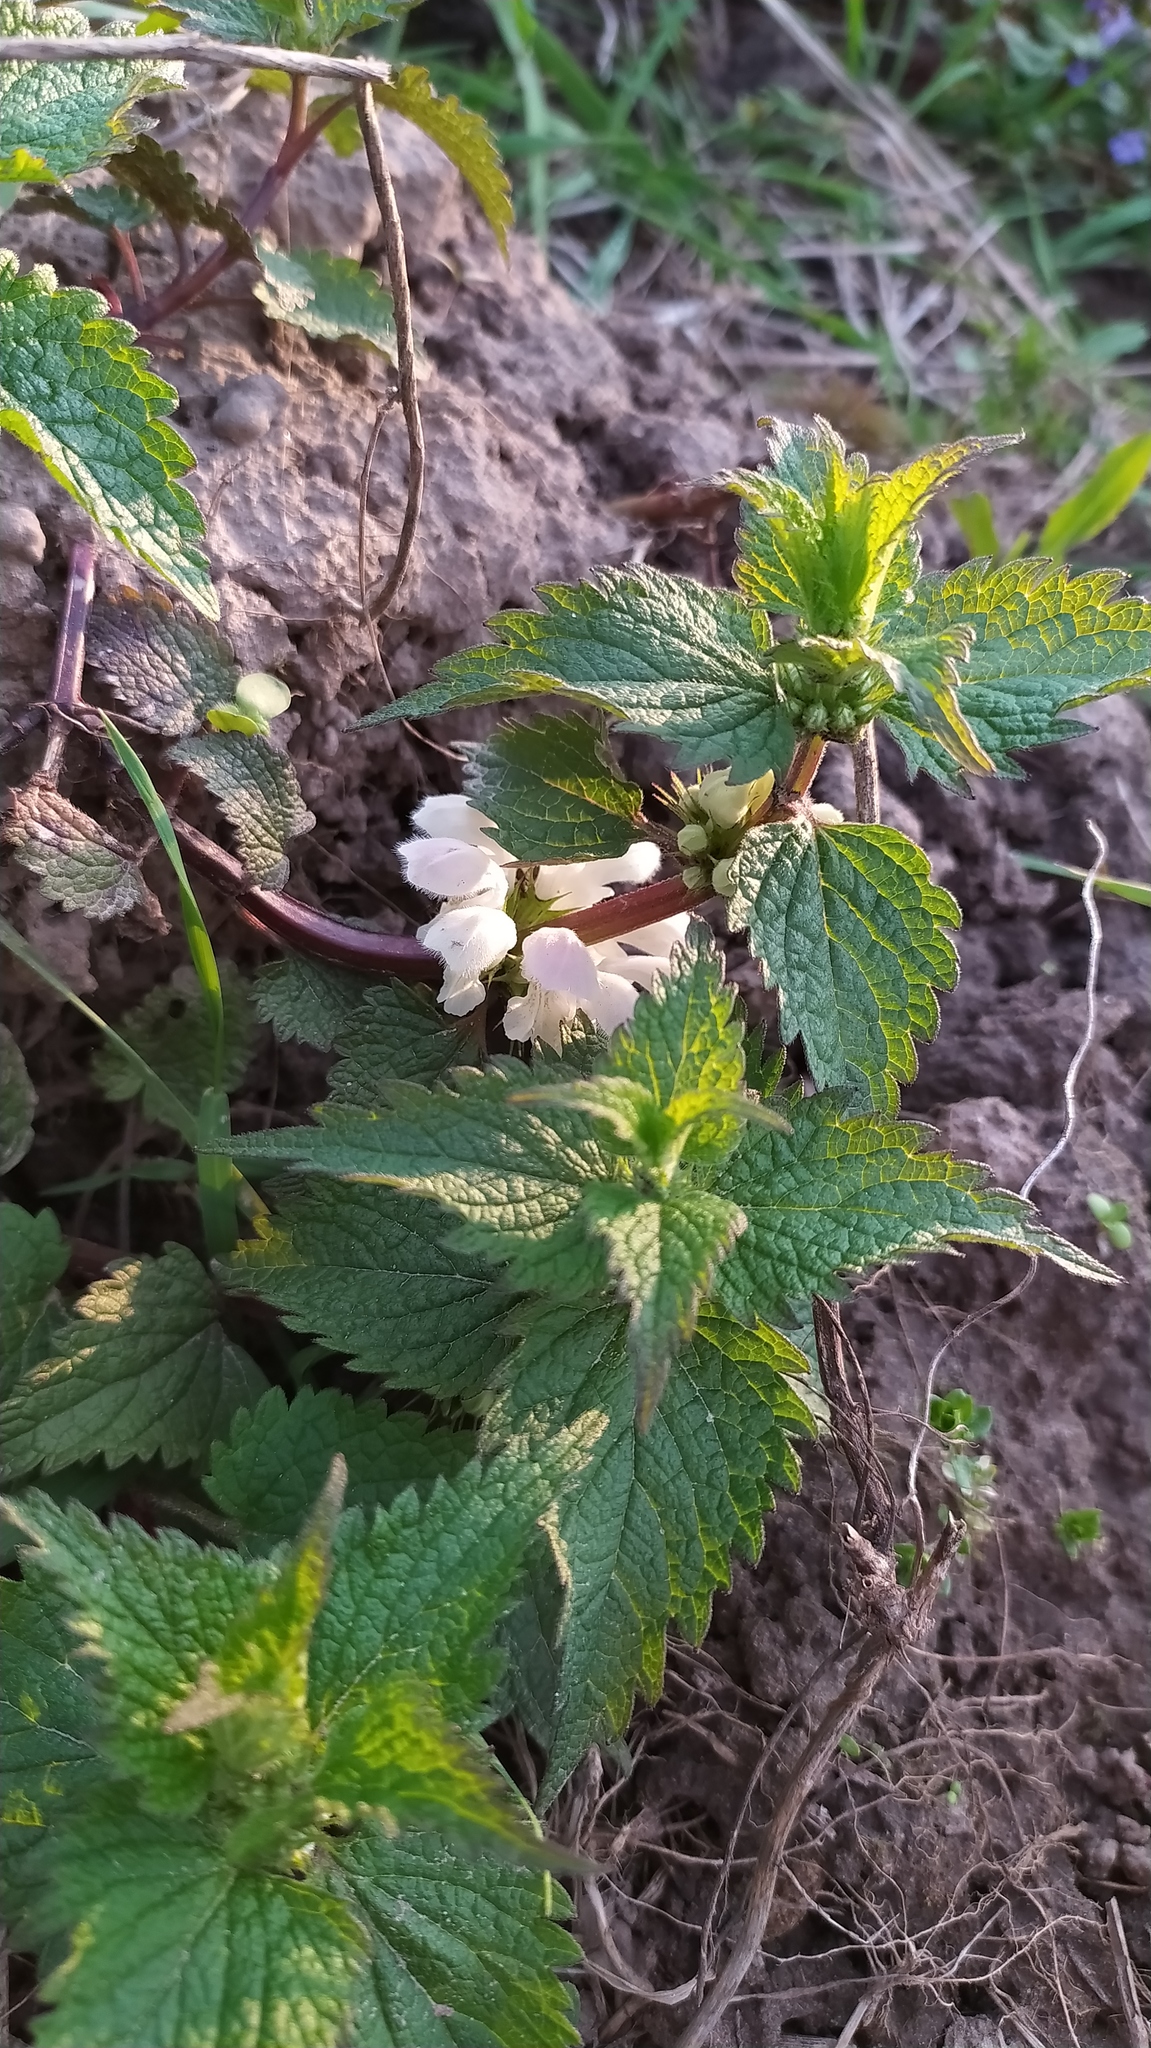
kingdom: Plantae
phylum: Tracheophyta
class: Magnoliopsida
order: Lamiales
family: Lamiaceae
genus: Lamium
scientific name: Lamium album
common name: White dead-nettle
